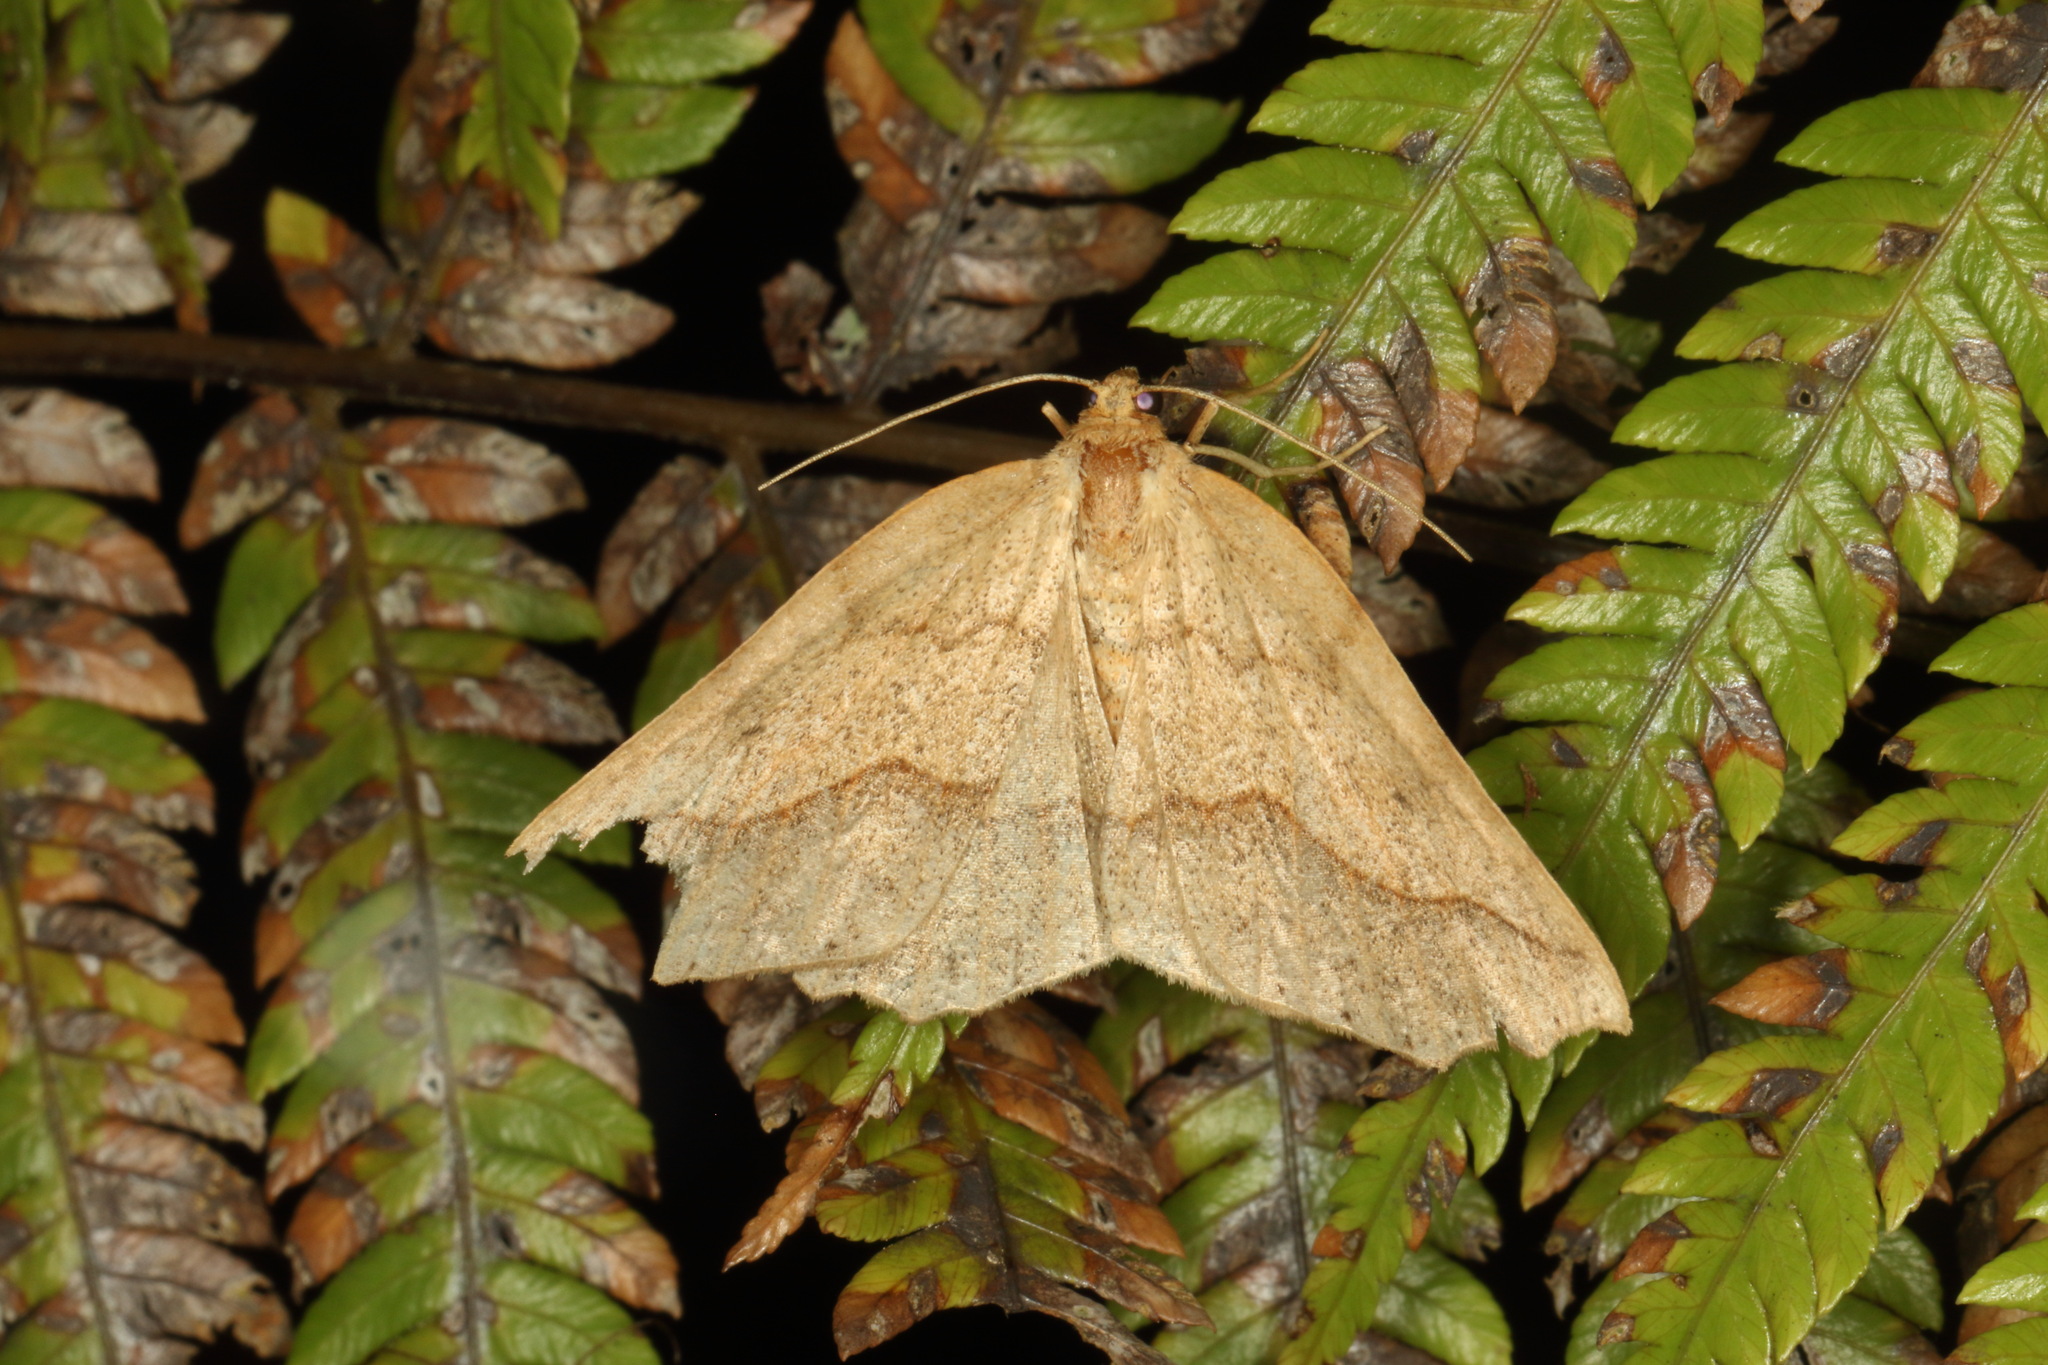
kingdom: Animalia
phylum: Arthropoda
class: Insecta
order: Lepidoptera
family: Geometridae
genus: Ischalis
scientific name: Ischalis variabilis
